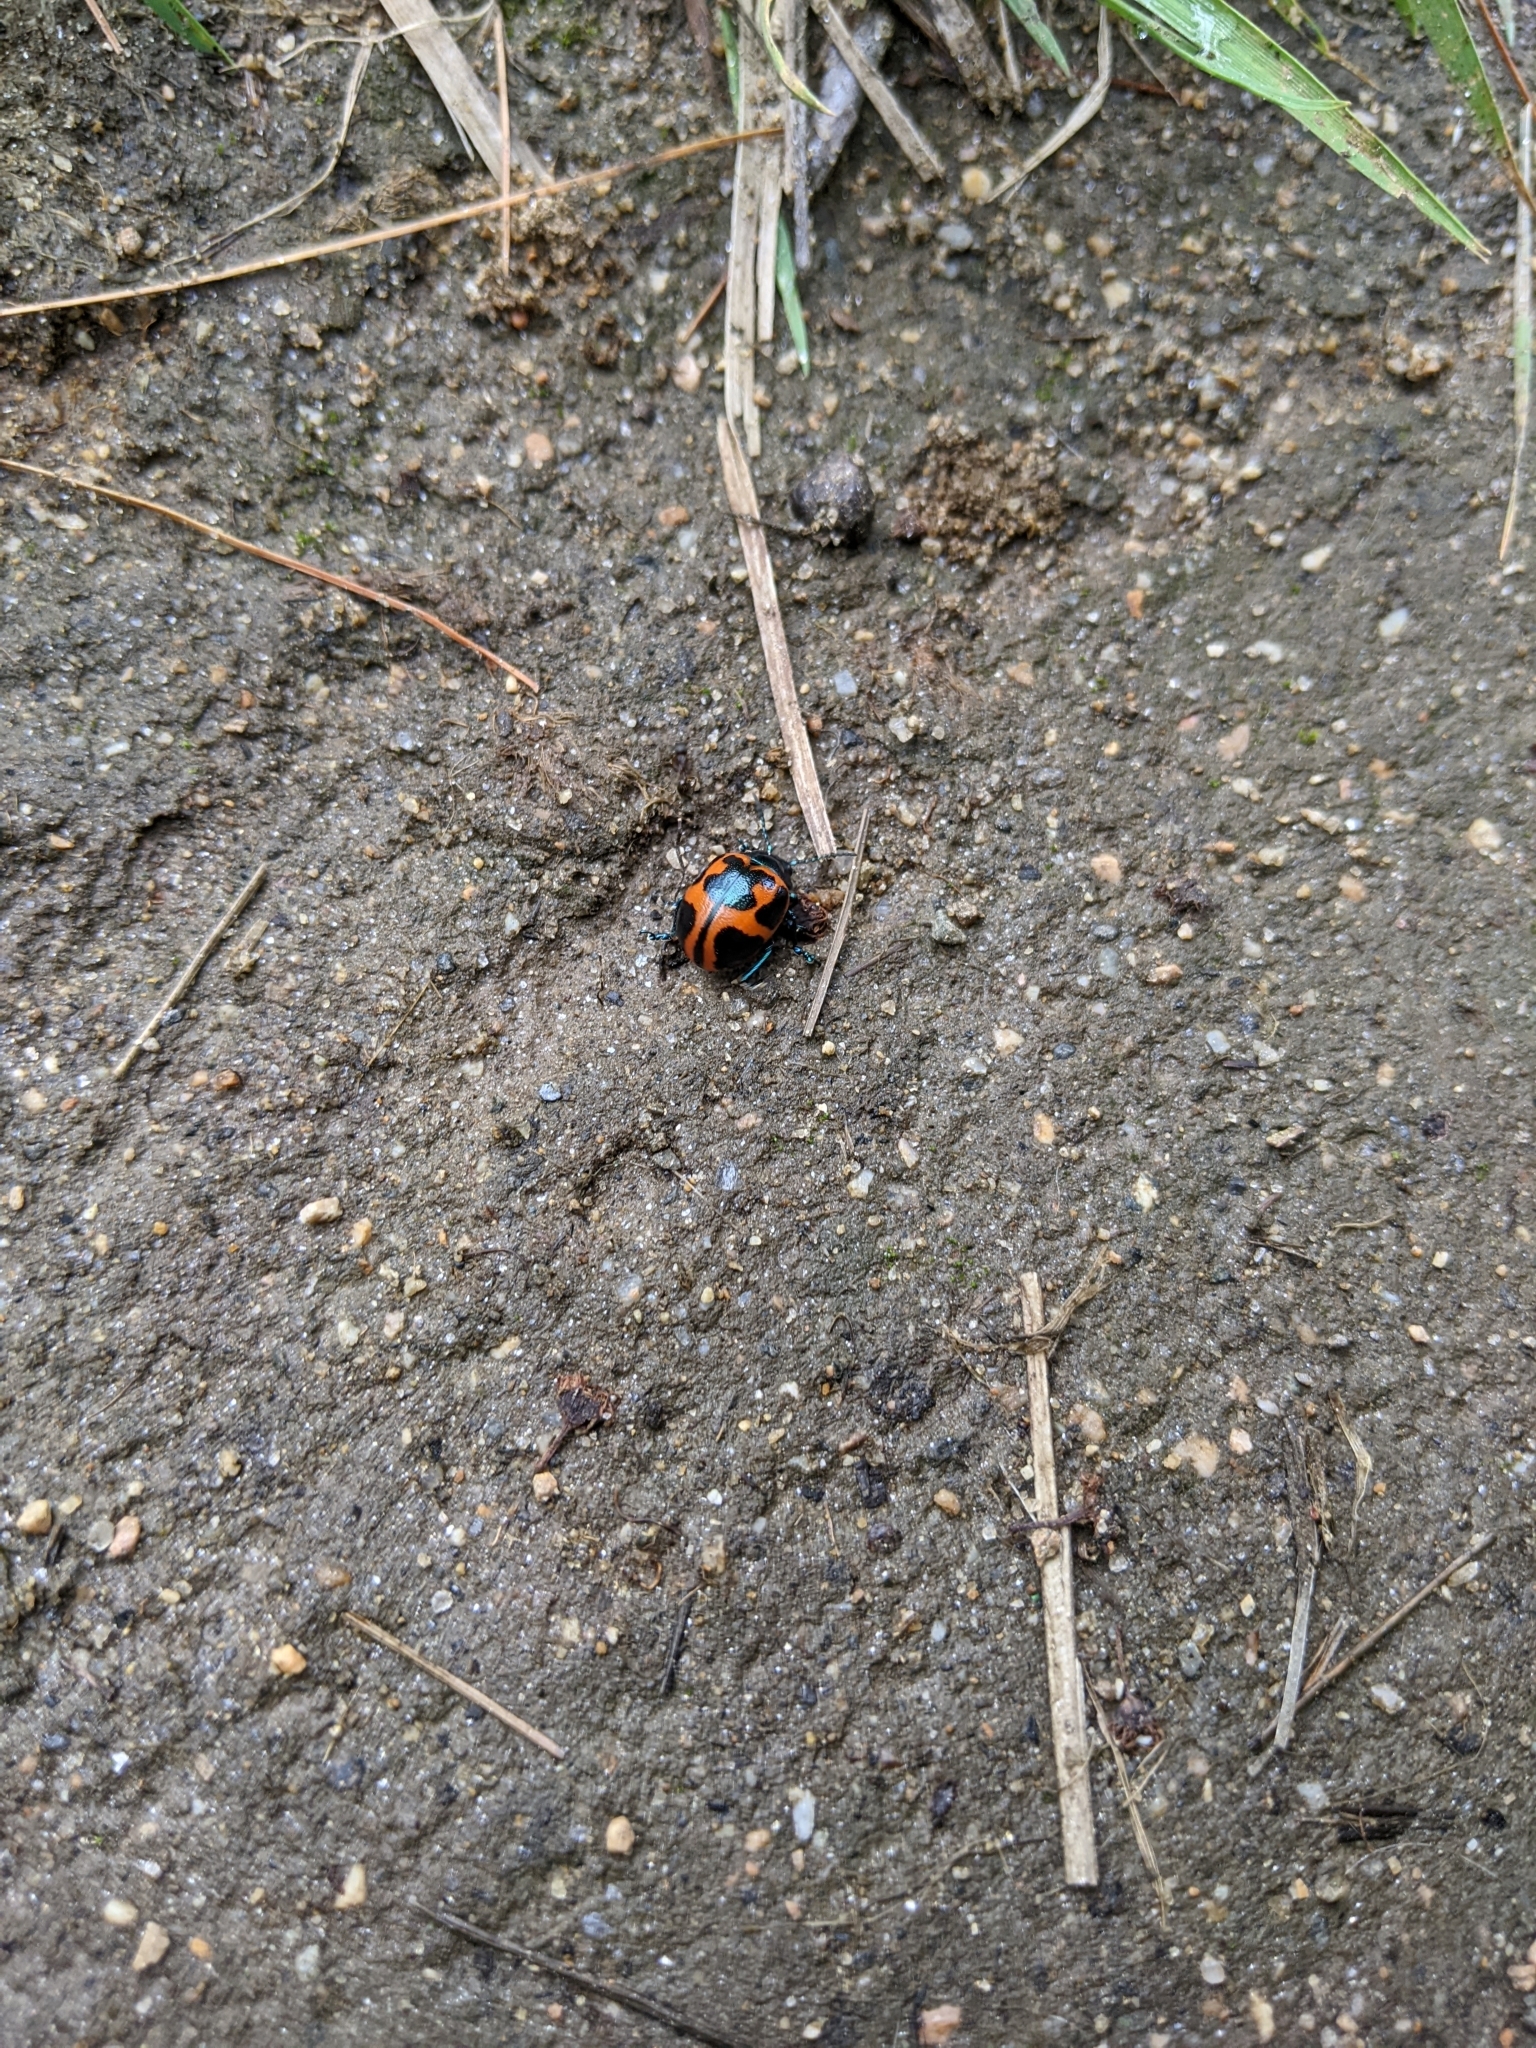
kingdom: Animalia
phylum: Arthropoda
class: Insecta
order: Coleoptera
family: Chrysomelidae
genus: Labidomera
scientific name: Labidomera clivicollis
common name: Swamp milkweed leaf beetle
